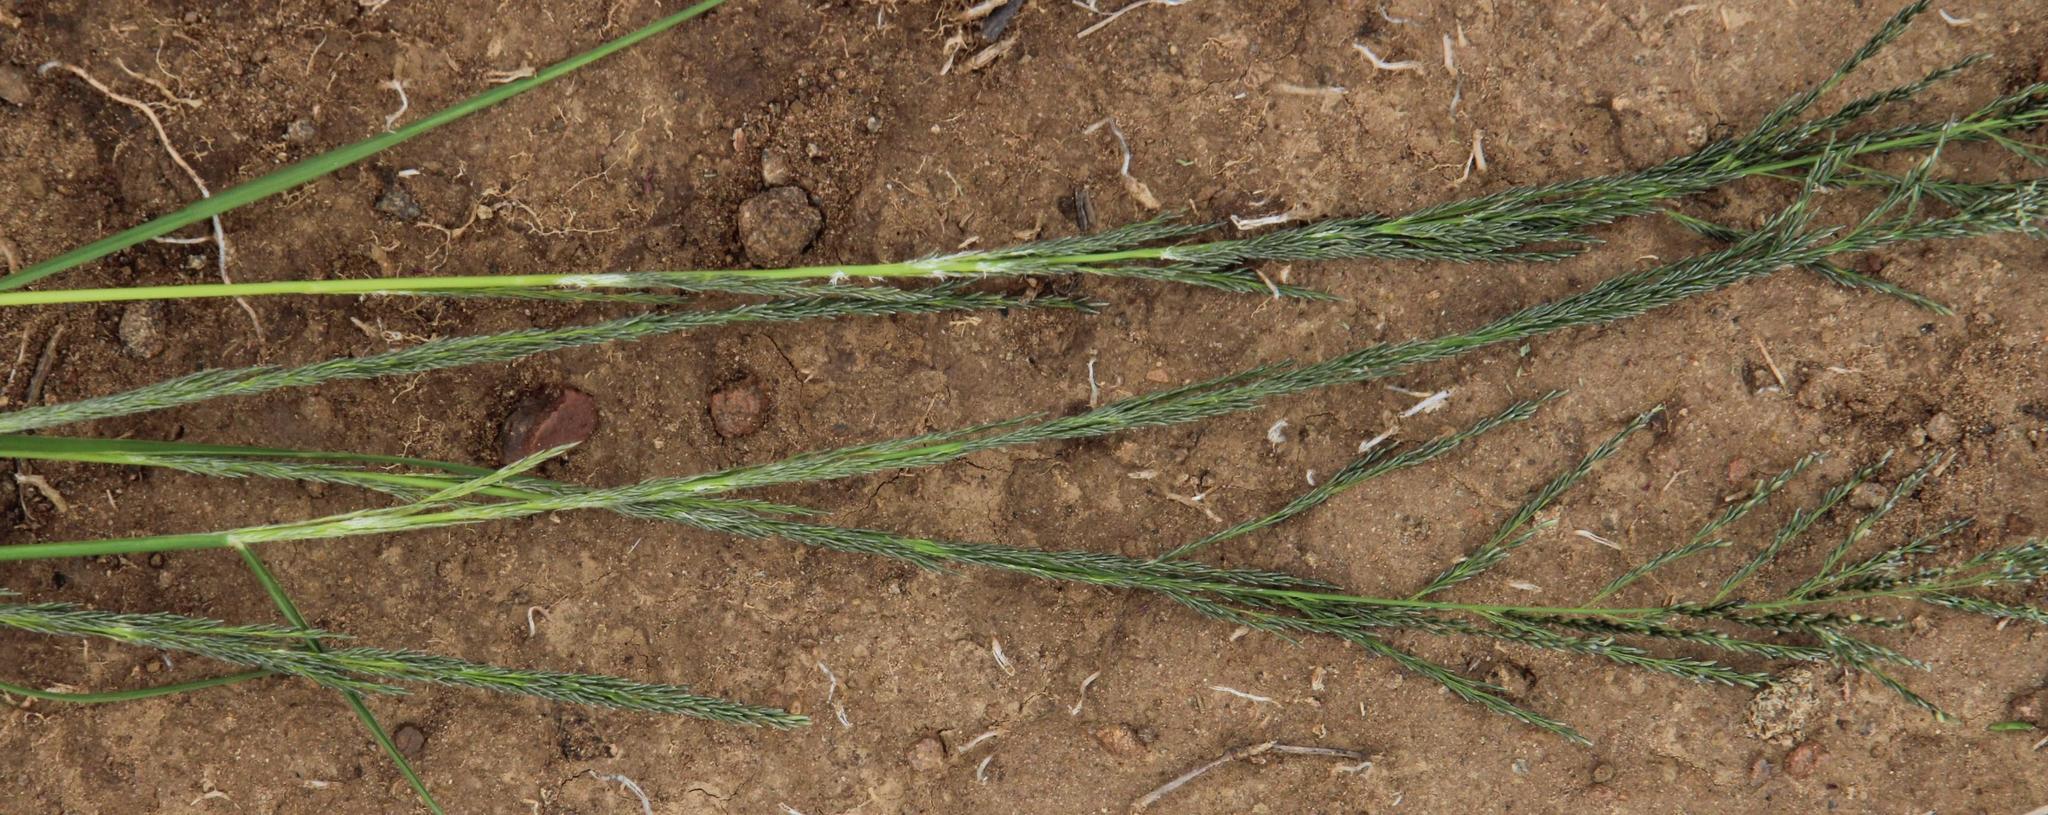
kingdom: Plantae
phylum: Tracheophyta
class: Liliopsida
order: Poales
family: Poaceae
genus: Sporobolus
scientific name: Sporobolus fimbriatus
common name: Fringed dropseed
